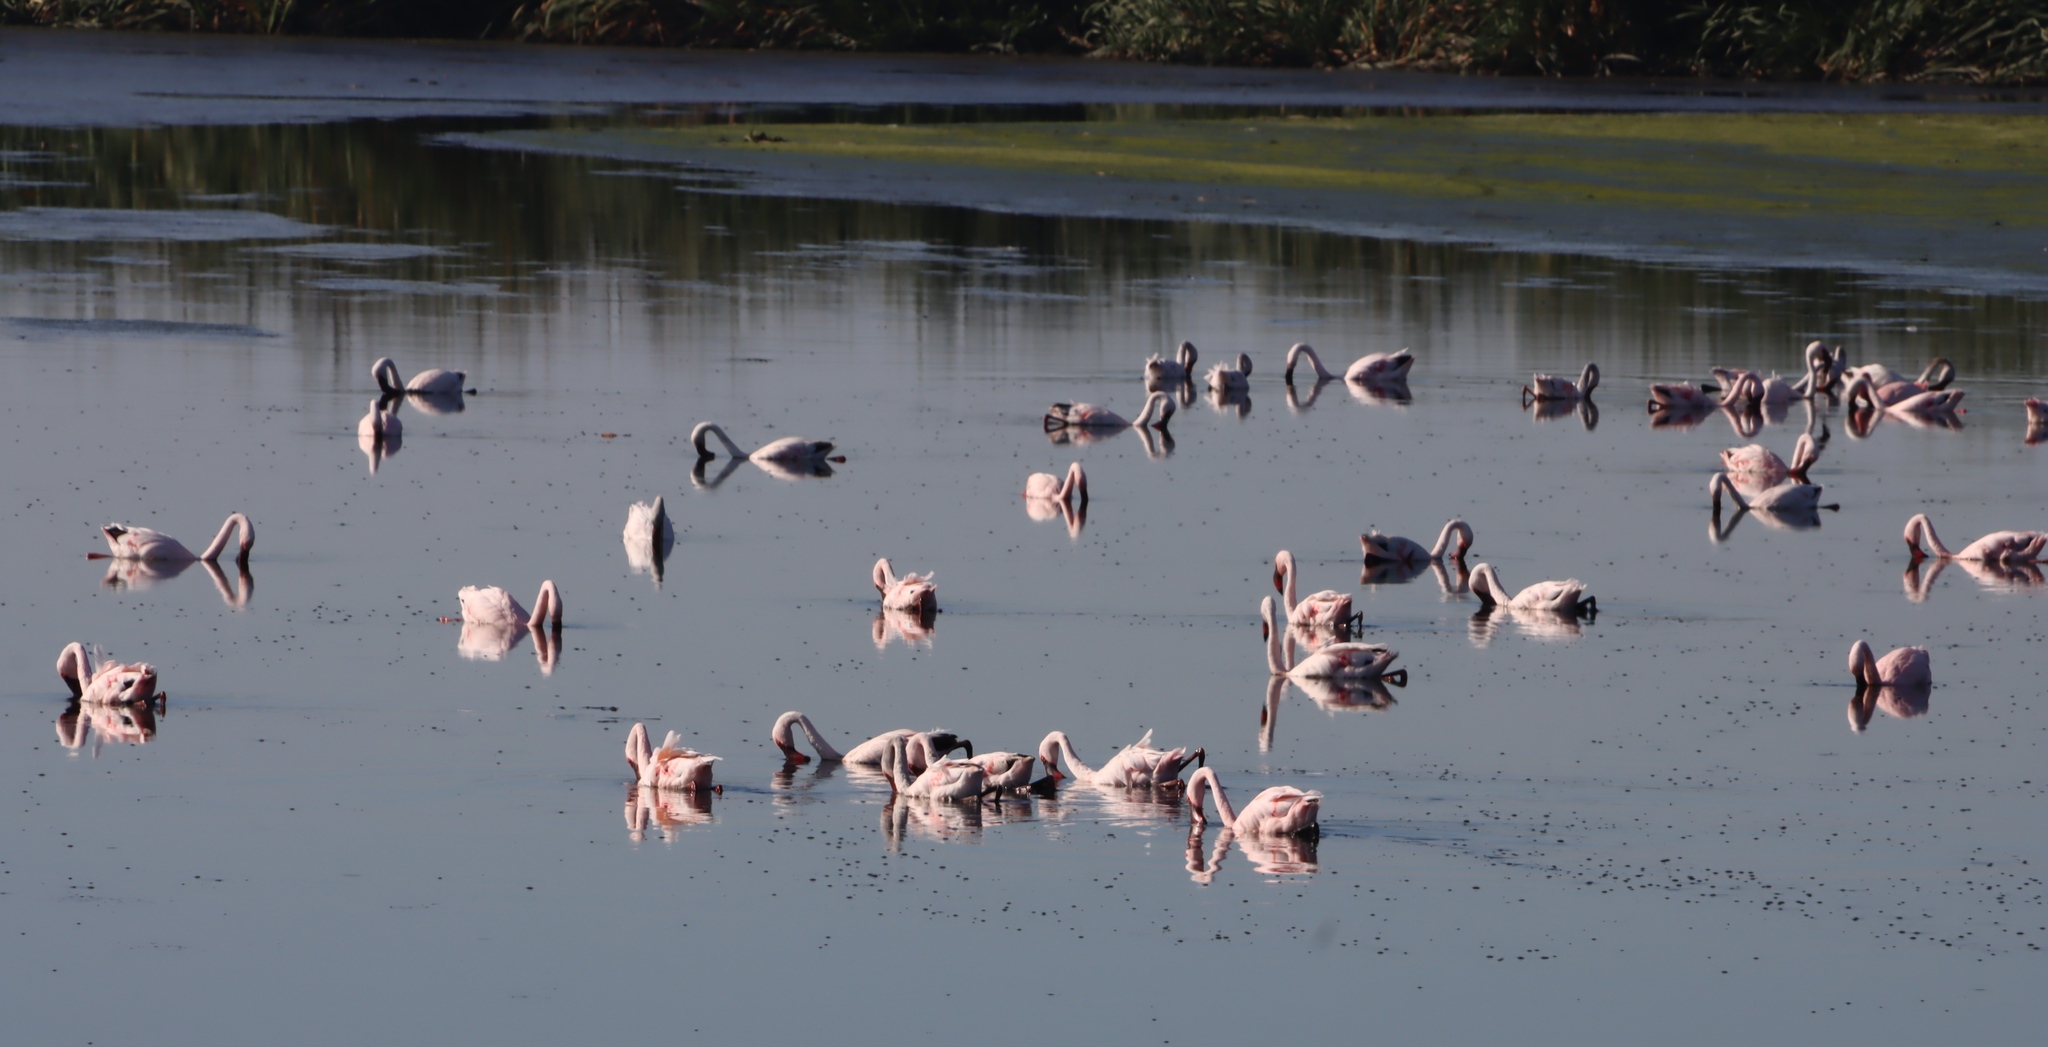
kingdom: Animalia
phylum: Chordata
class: Aves
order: Phoenicopteriformes
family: Phoenicopteridae
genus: Phoeniconaias
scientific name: Phoeniconaias minor
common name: Lesser flamingo
